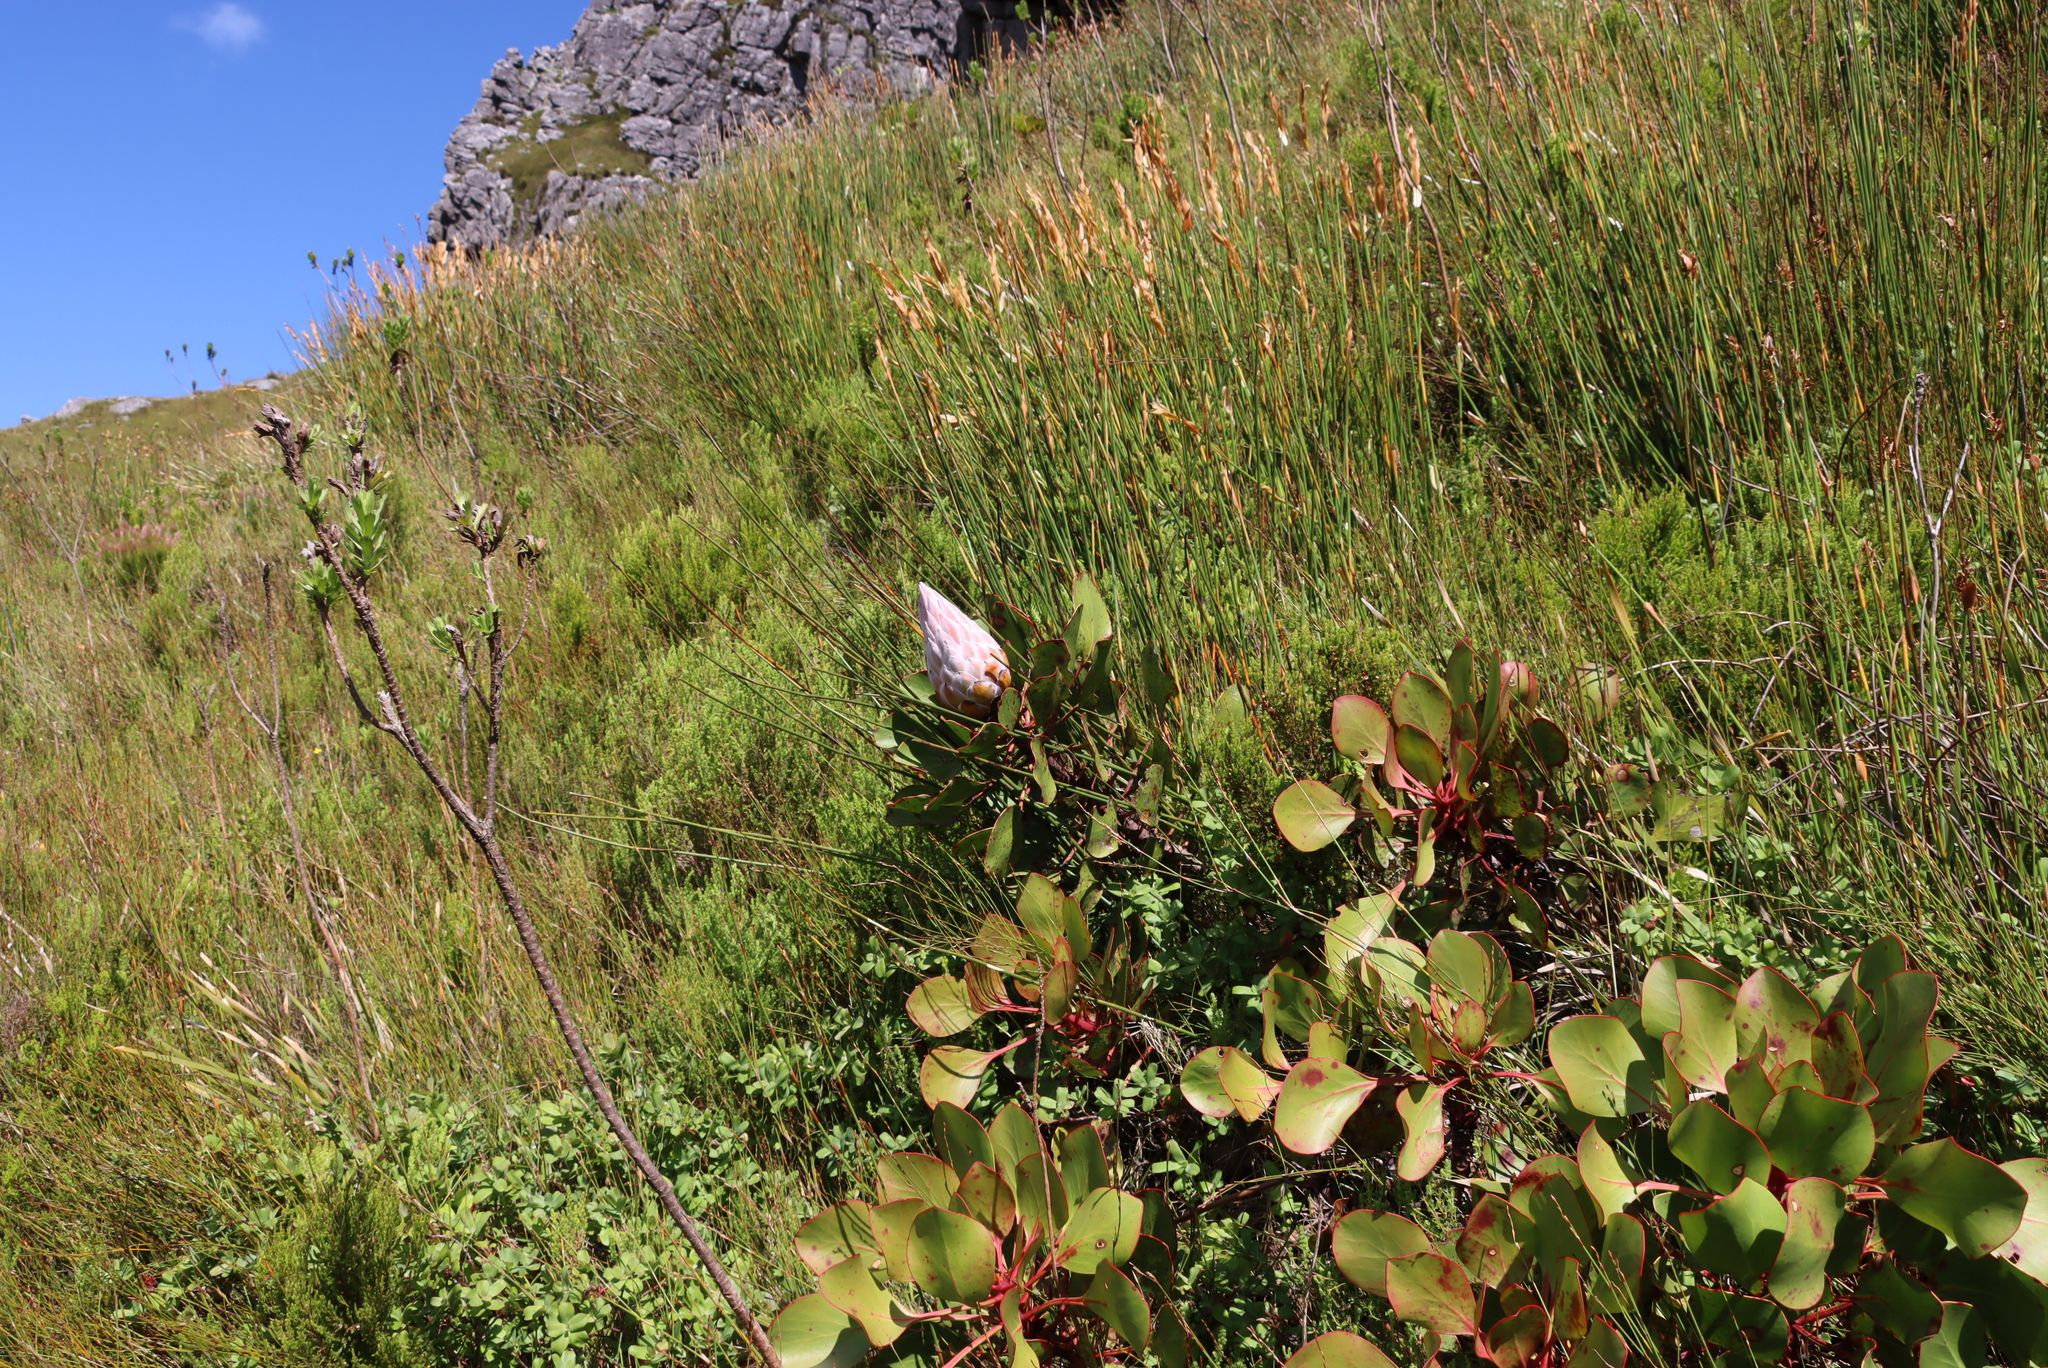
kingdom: Plantae
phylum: Tracheophyta
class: Magnoliopsida
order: Proteales
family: Proteaceae
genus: Protea
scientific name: Protea cynaroides
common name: King protea
